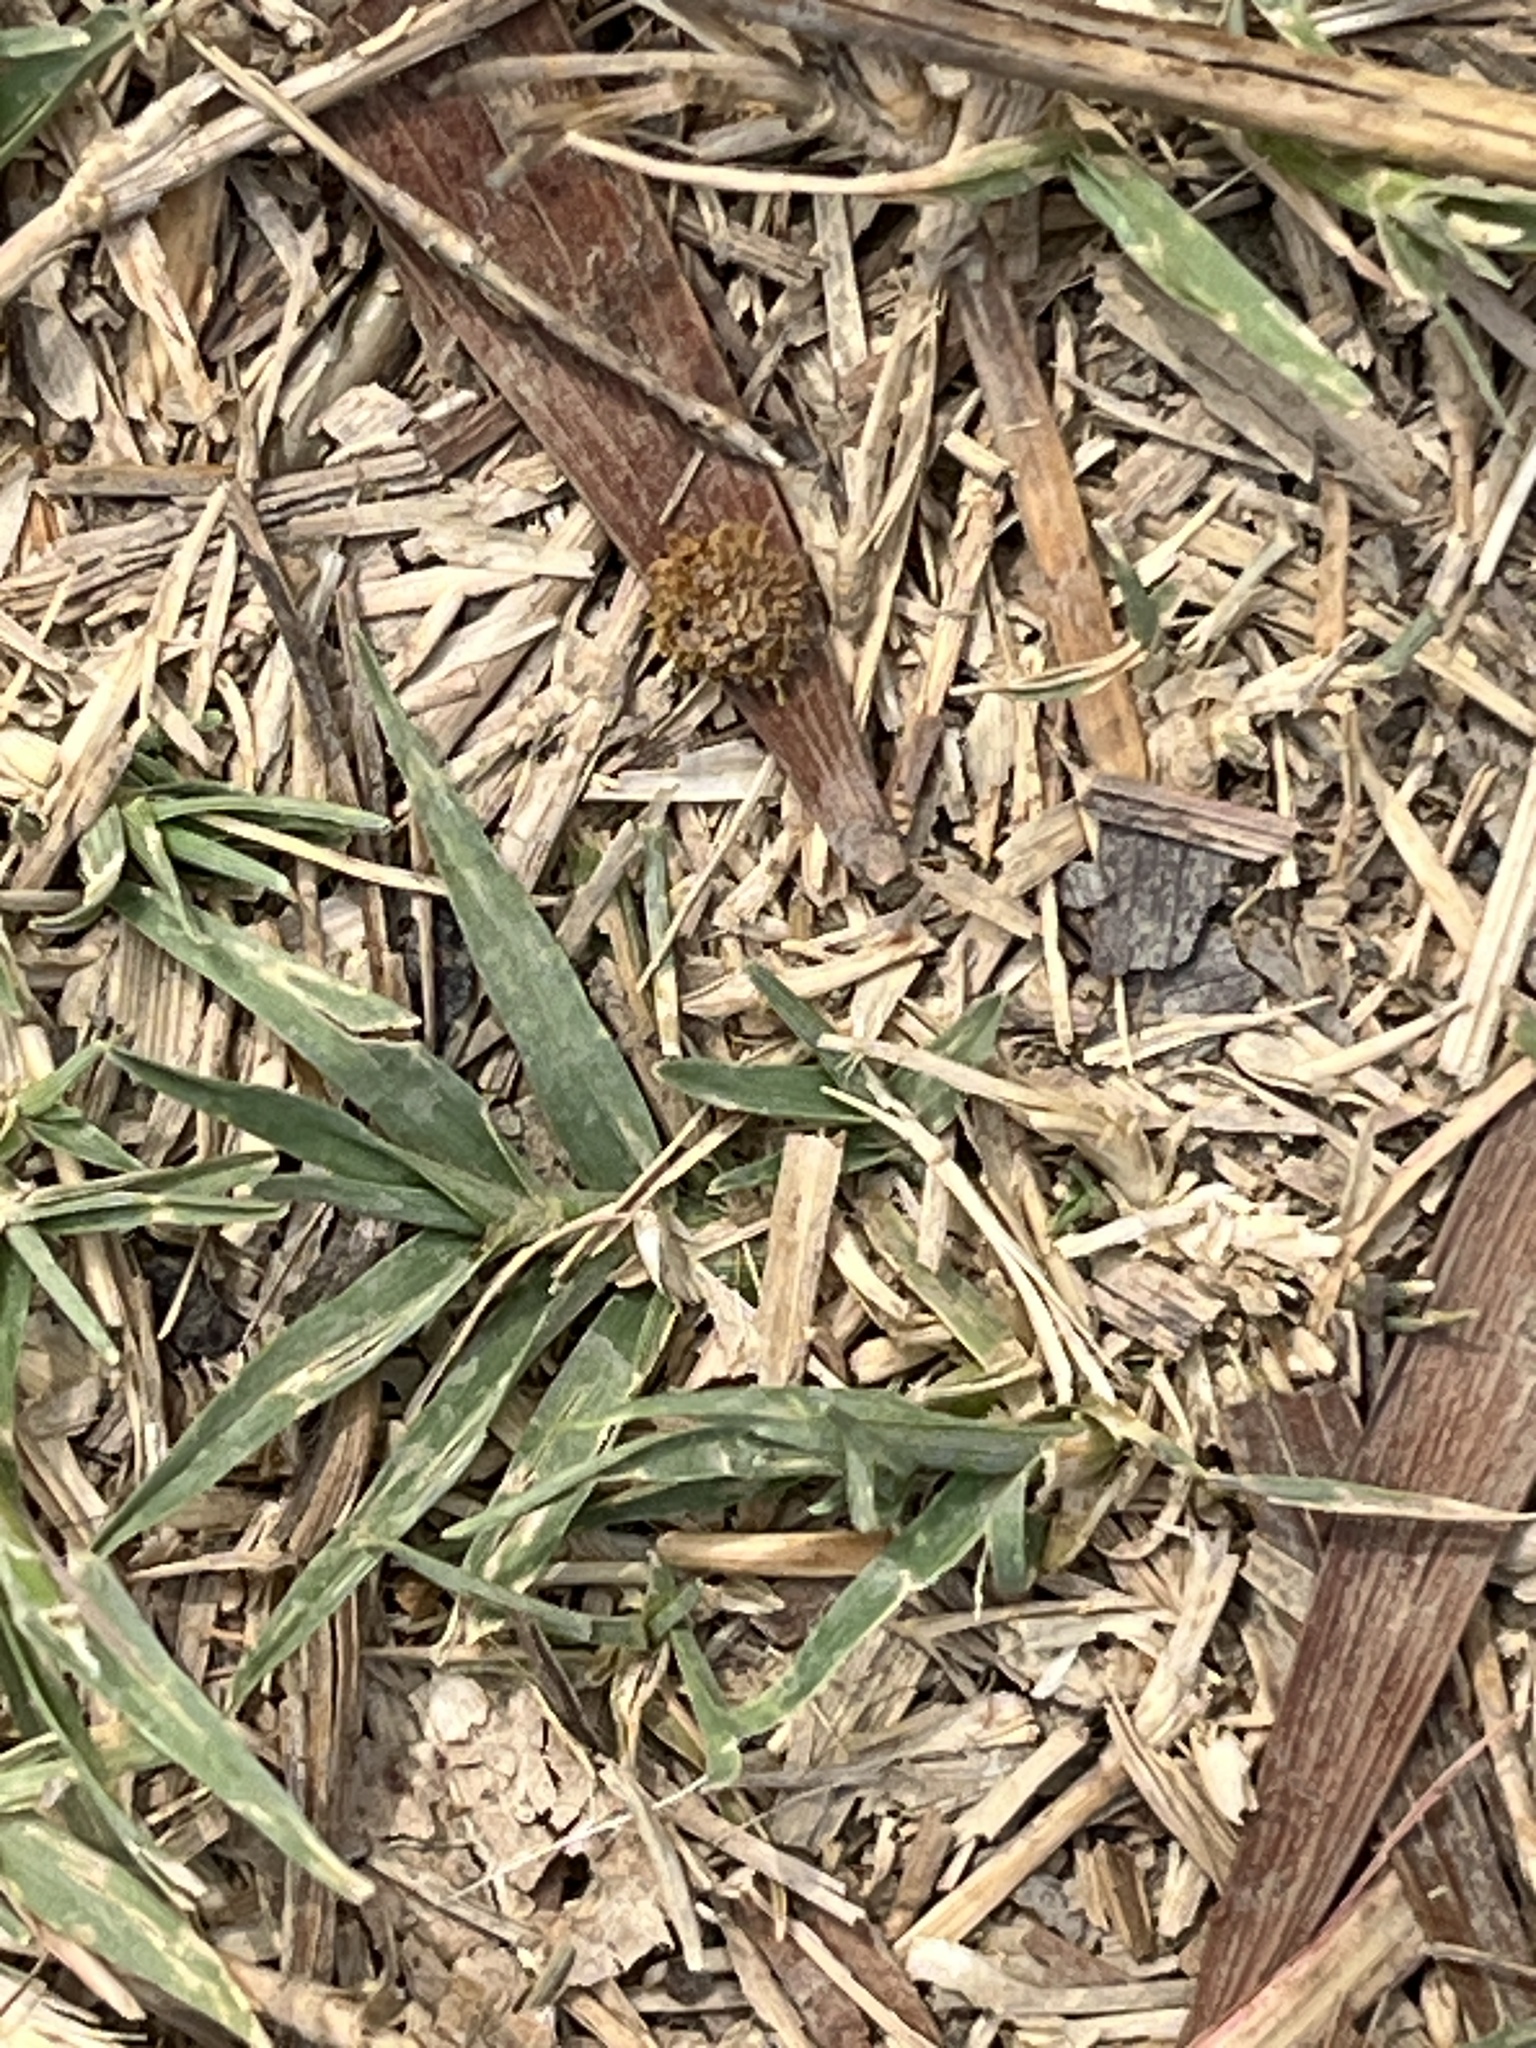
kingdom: Plantae
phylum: Tracheophyta
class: Liliopsida
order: Poales
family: Poaceae
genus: Axonopus
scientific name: Axonopus compressus
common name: American carpet grass
